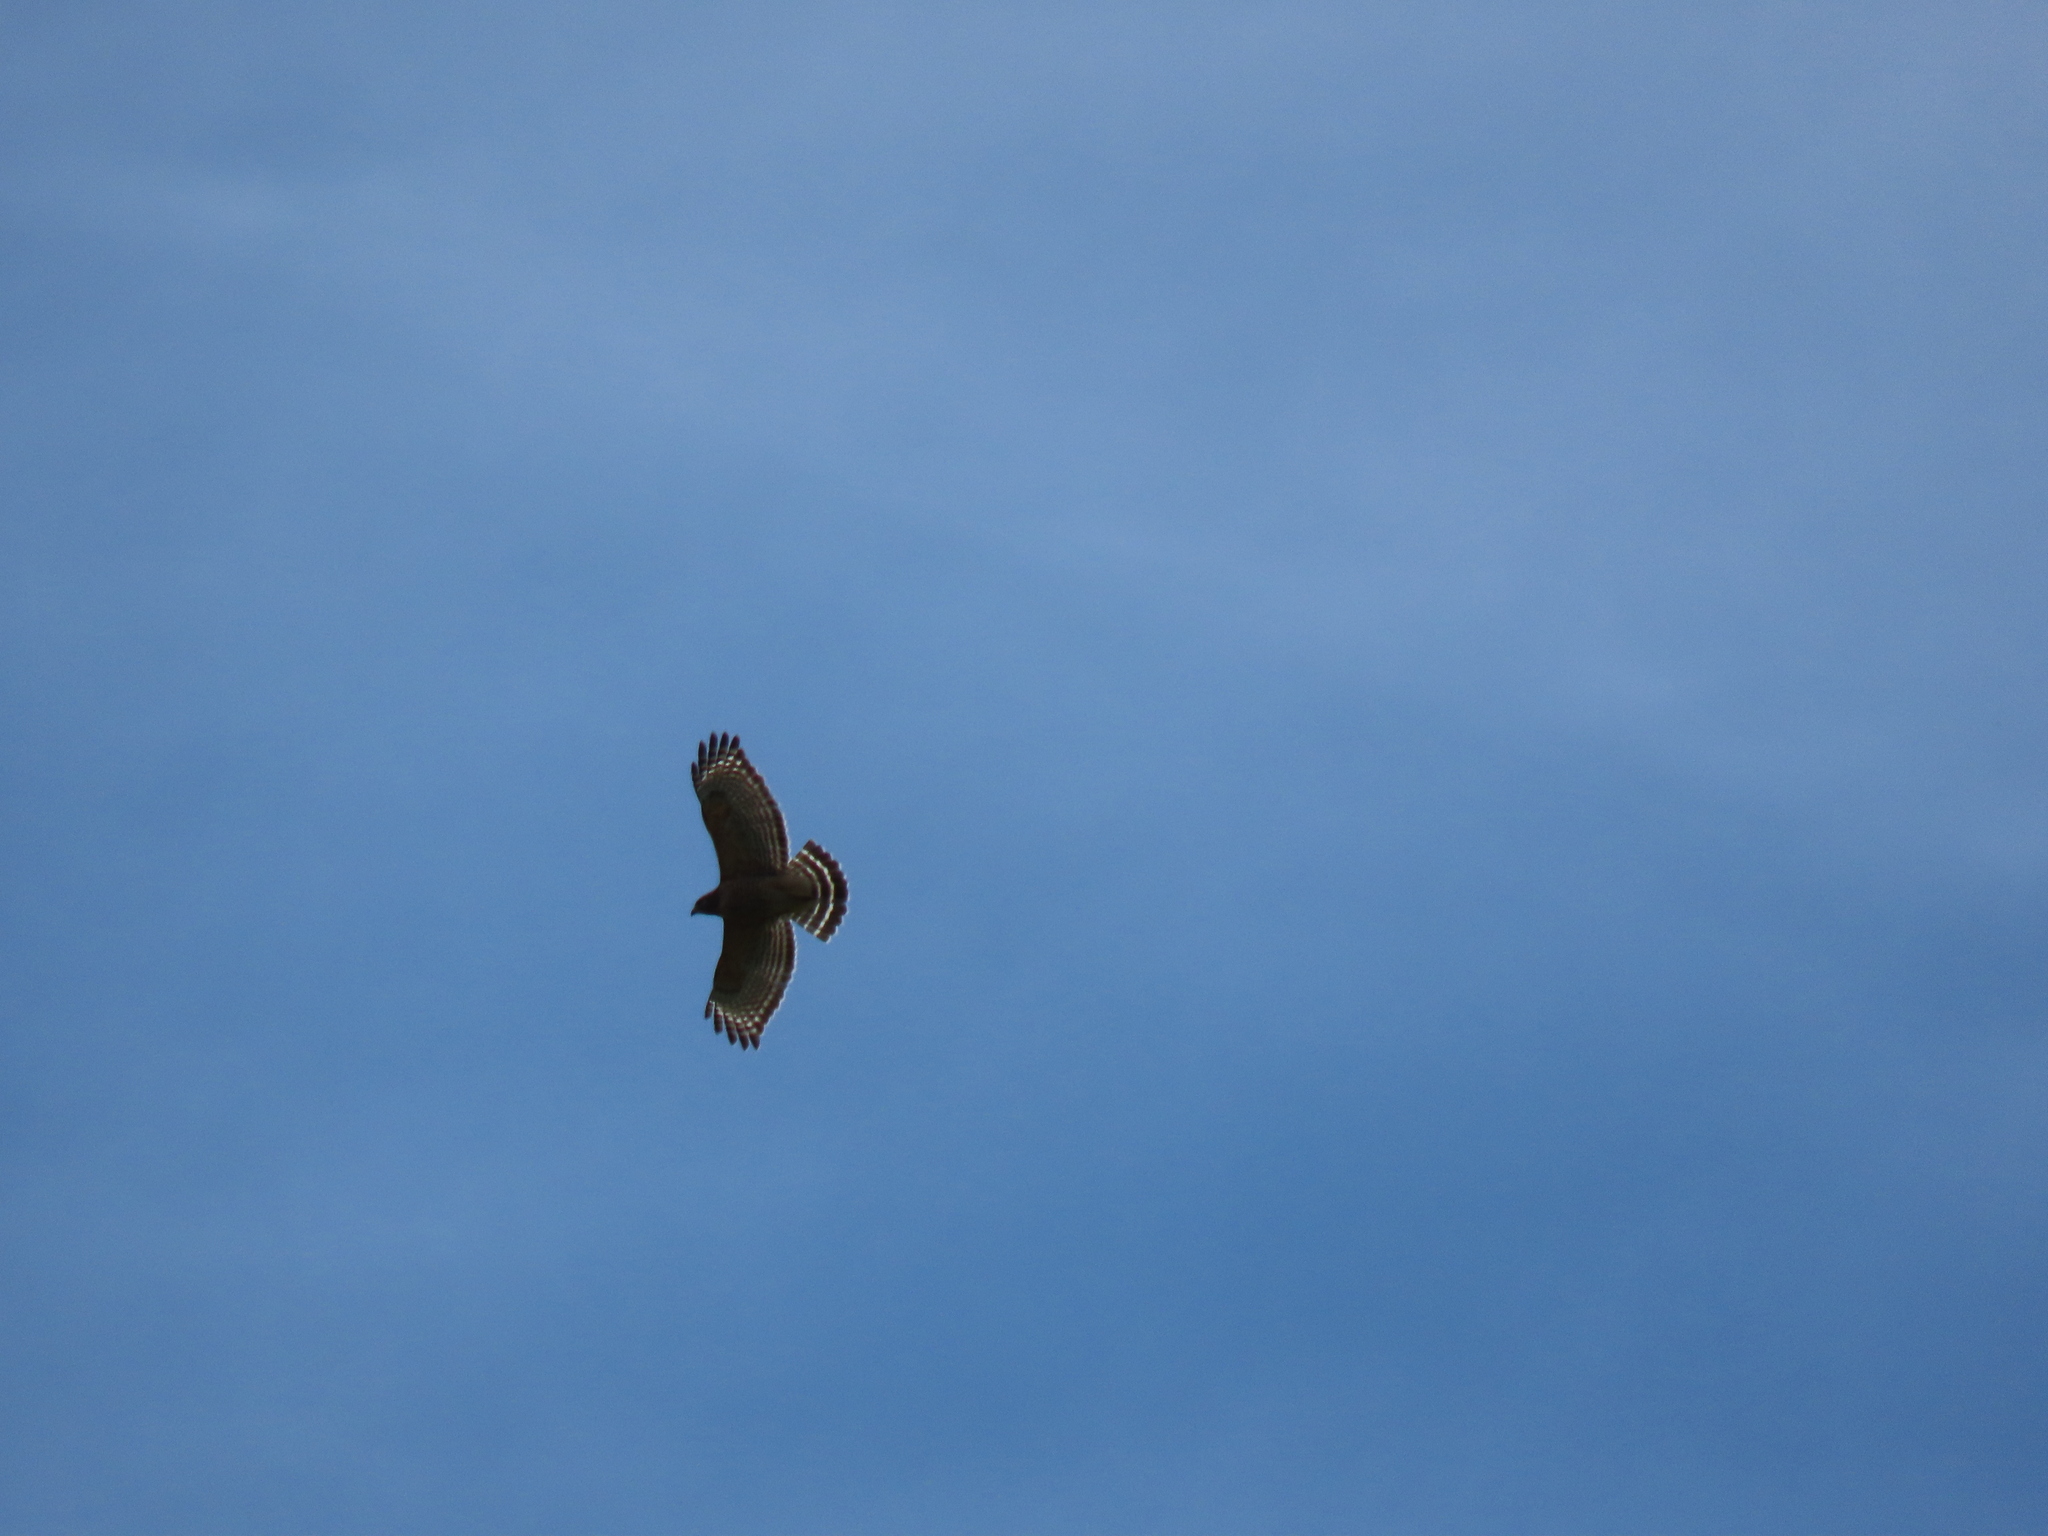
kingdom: Animalia
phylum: Chordata
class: Aves
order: Accipitriformes
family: Accipitridae
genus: Buteo
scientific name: Buteo lineatus
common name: Red-shouldered hawk
